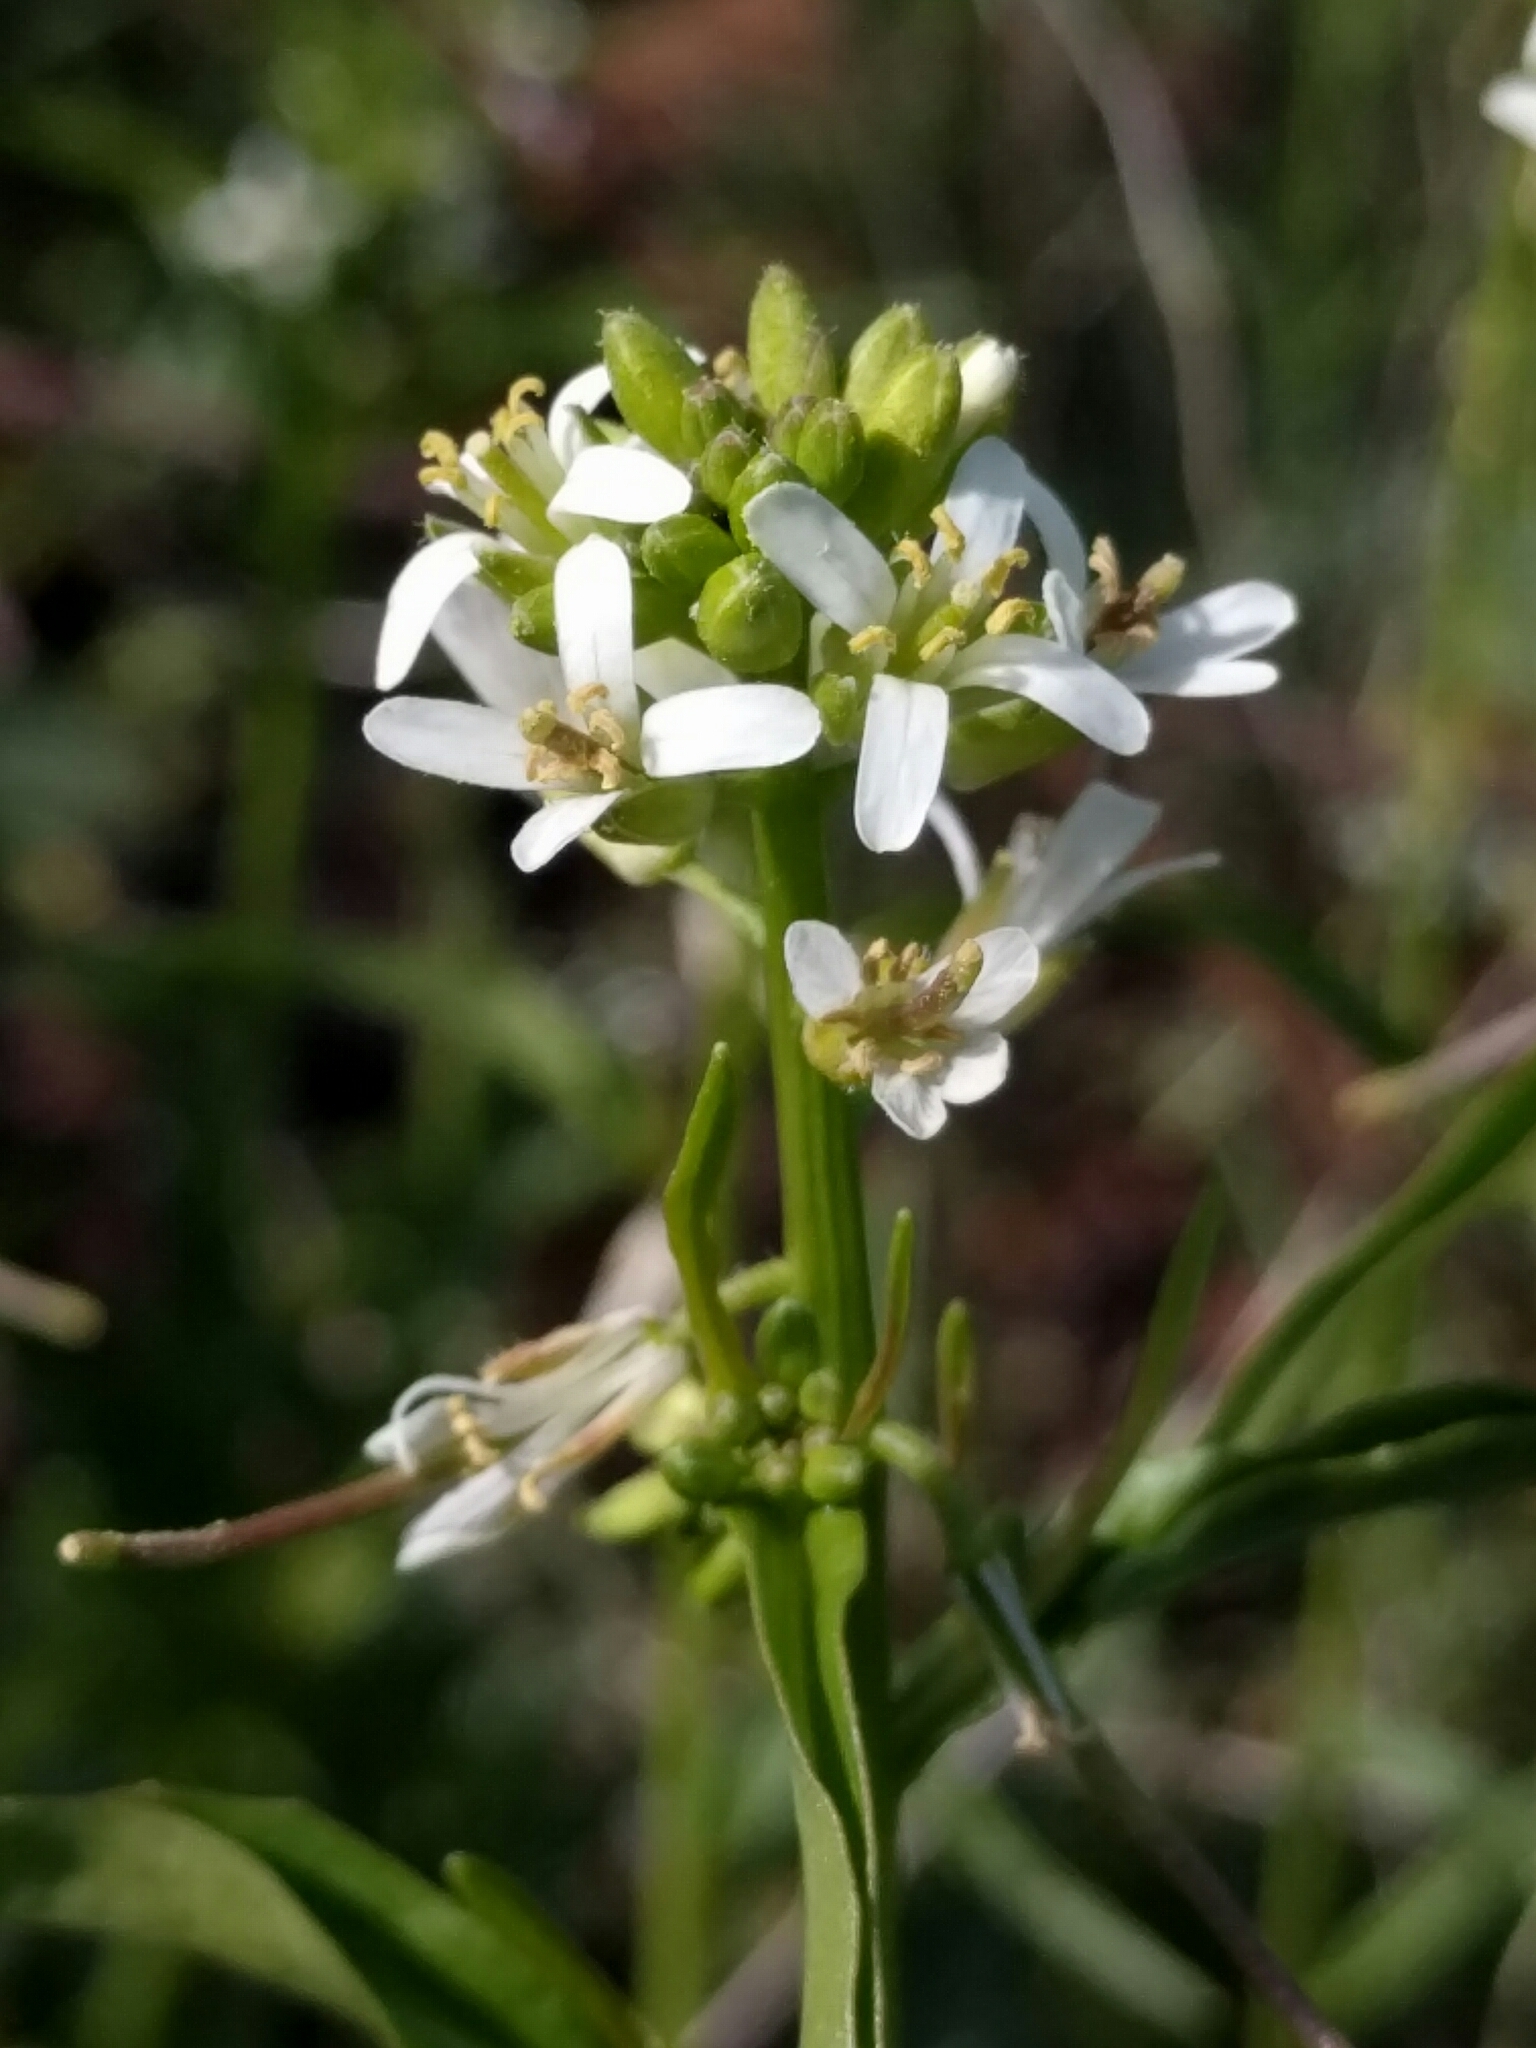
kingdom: Plantae
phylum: Tracheophyta
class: Magnoliopsida
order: Brassicales
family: Brassicaceae
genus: Streptanthus
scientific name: Streptanthus lasiophyllus
